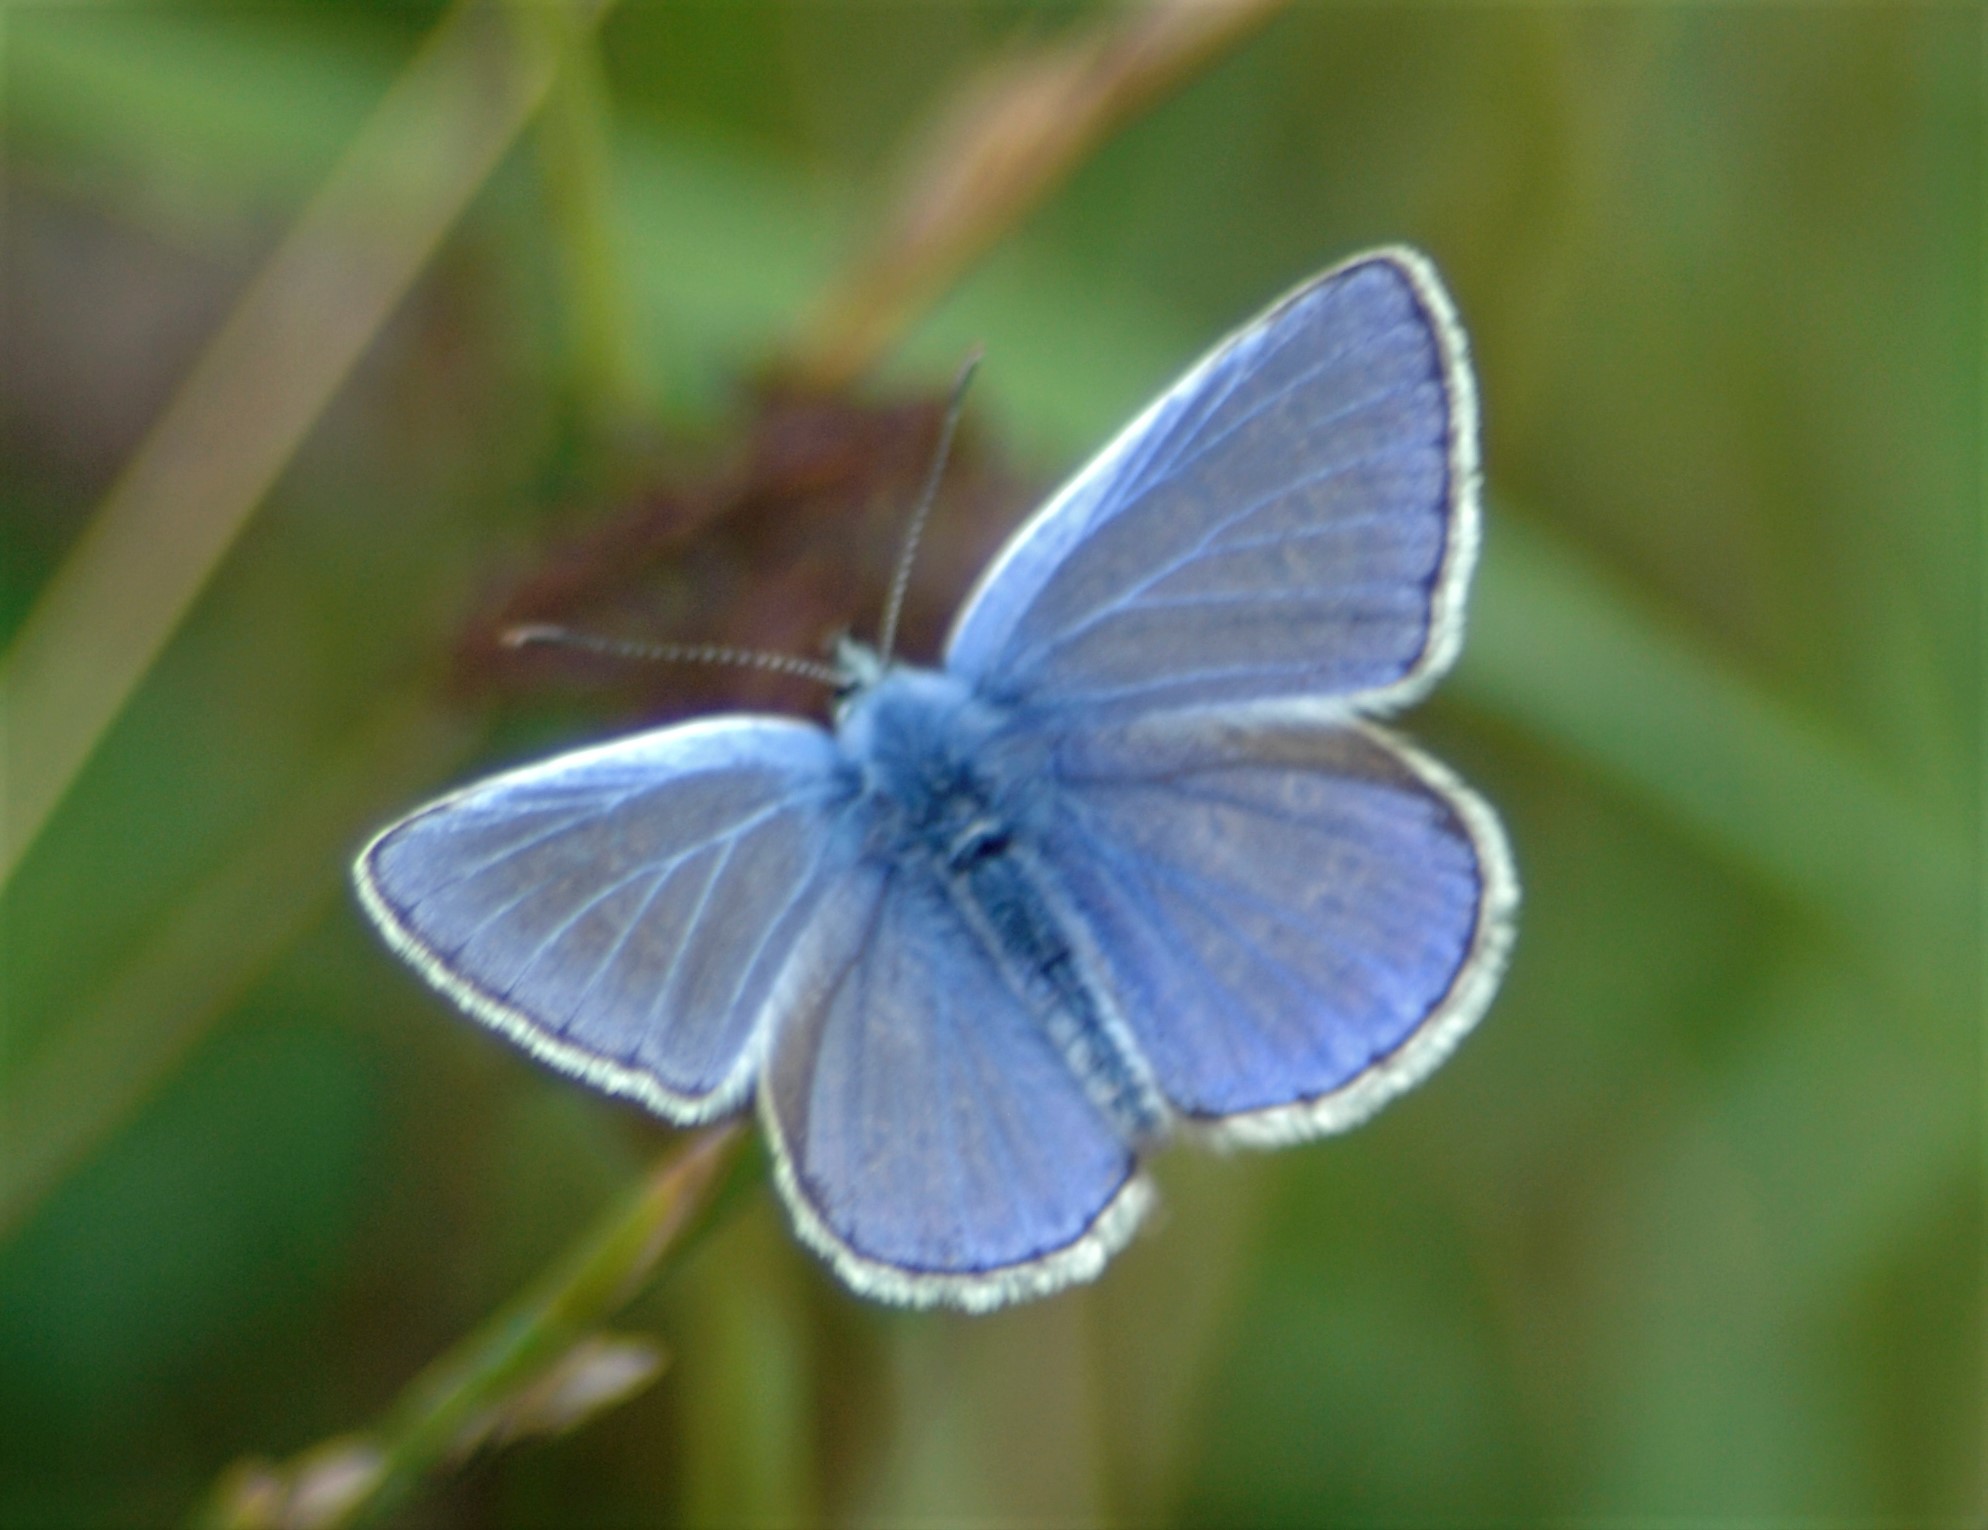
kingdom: Animalia
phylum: Arthropoda
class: Insecta
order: Lepidoptera
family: Lycaenidae
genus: Polyommatus
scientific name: Polyommatus icarus
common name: Common blue
